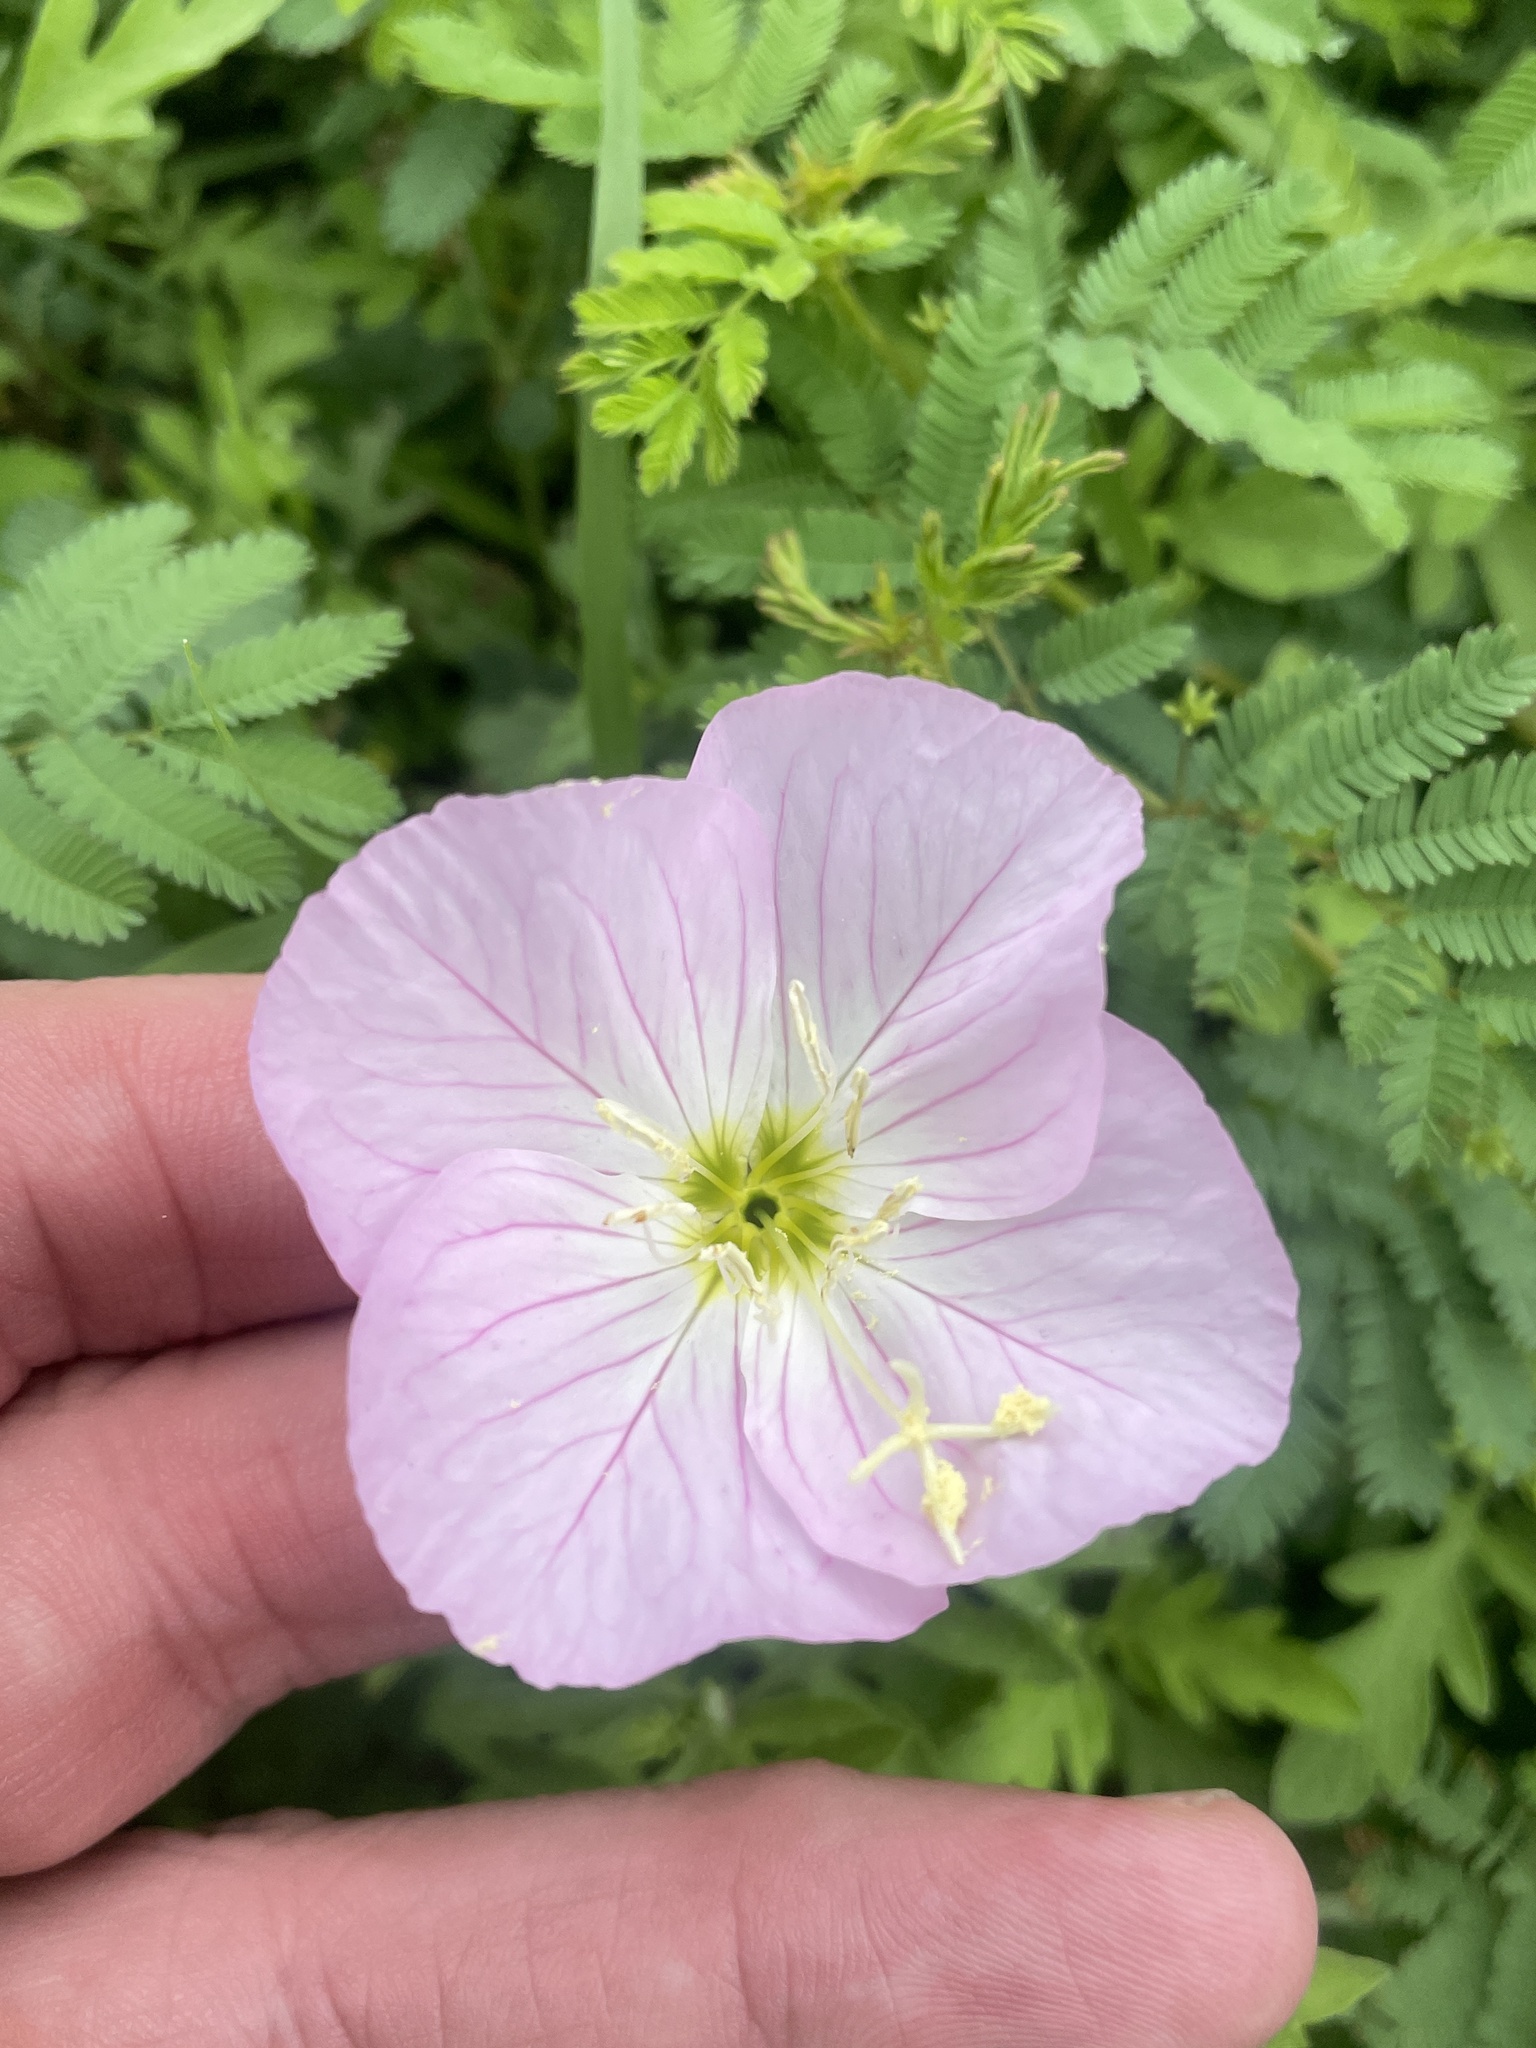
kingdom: Plantae
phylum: Tracheophyta
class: Magnoliopsida
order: Myrtales
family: Onagraceae
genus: Oenothera
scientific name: Oenothera speciosa
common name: White evening-primrose
